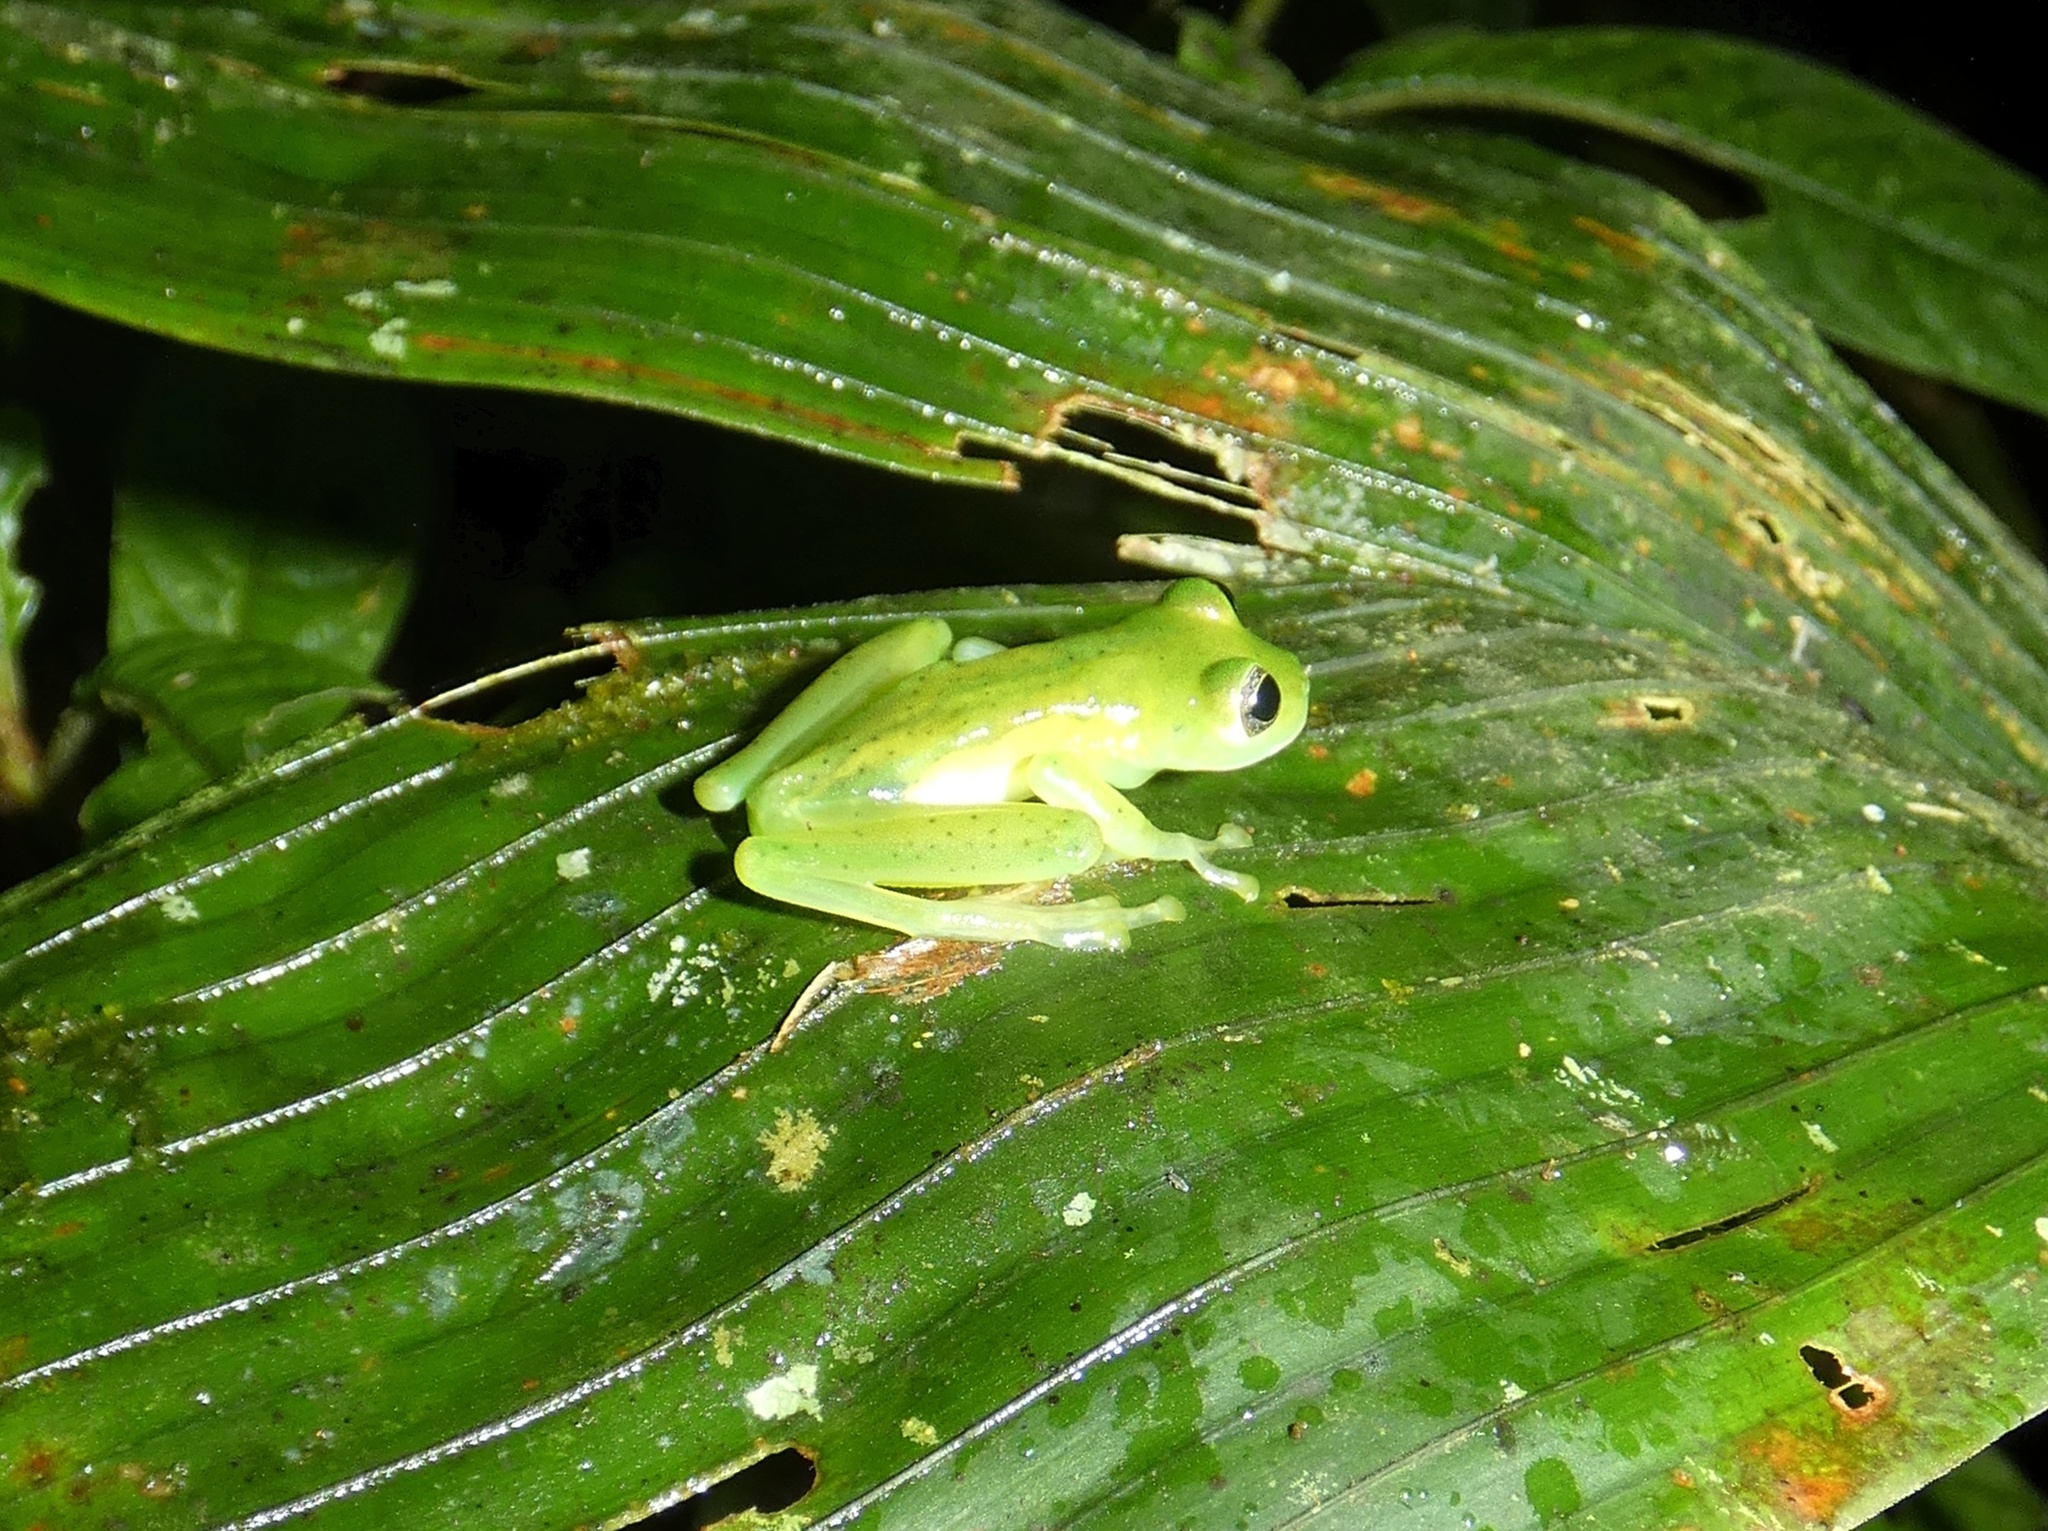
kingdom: Animalia
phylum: Chordata
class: Amphibia
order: Anura
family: Centrolenidae
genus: Espadarana
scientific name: Espadarana prosoblepon
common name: Rana de cristal variable
